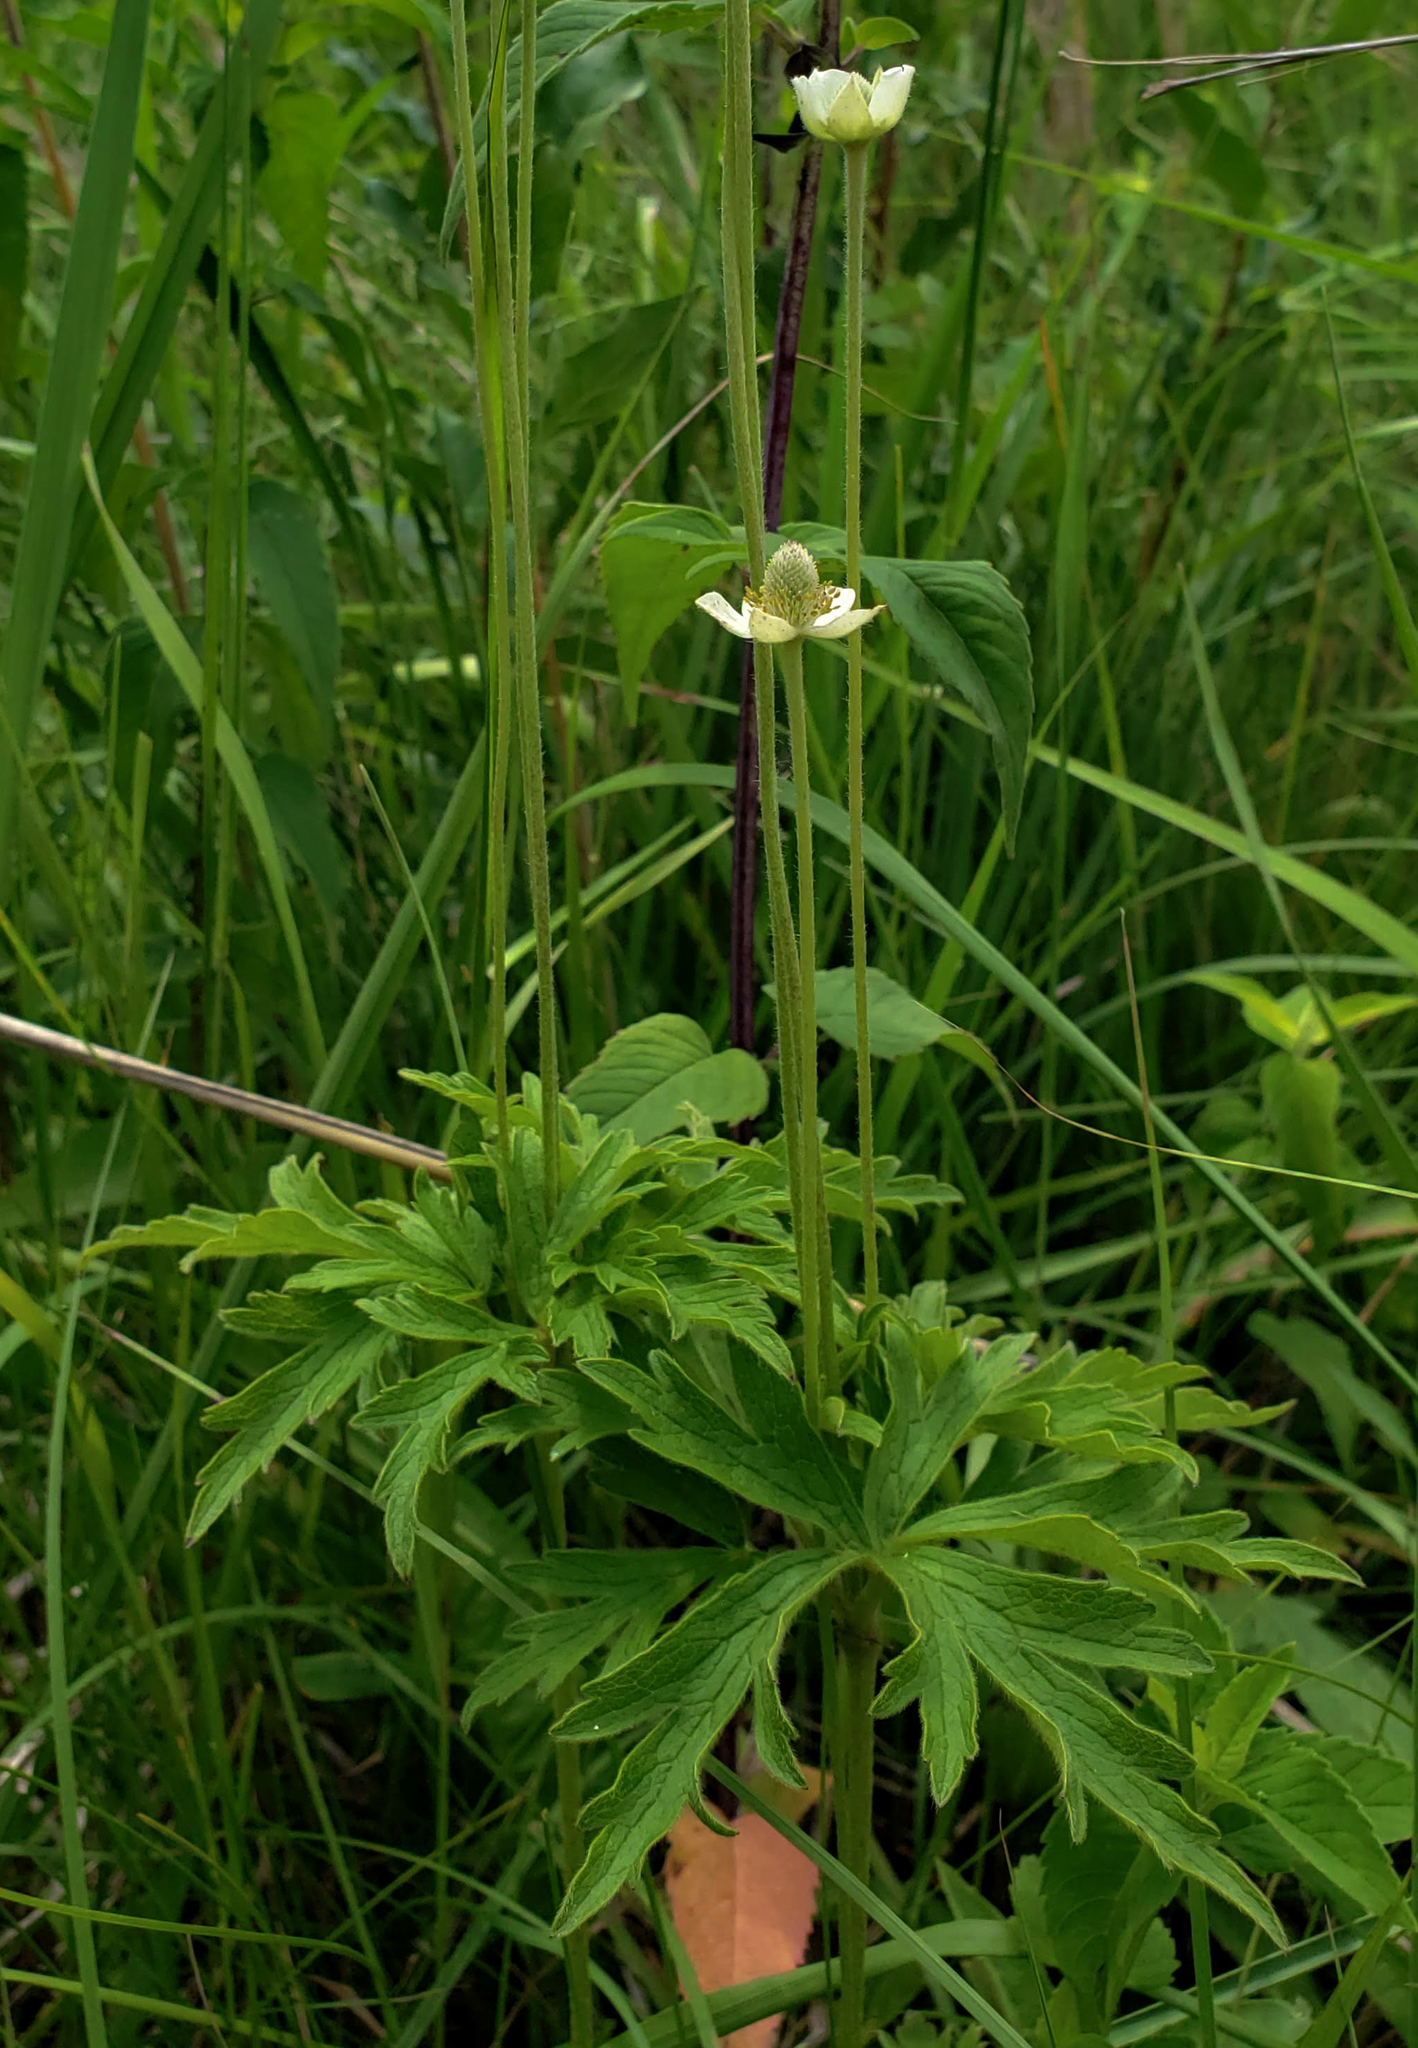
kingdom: Plantae
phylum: Tracheophyta
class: Magnoliopsida
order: Ranunculales
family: Ranunculaceae
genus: Anemone
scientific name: Anemone cylindrica
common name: Candle anemone
